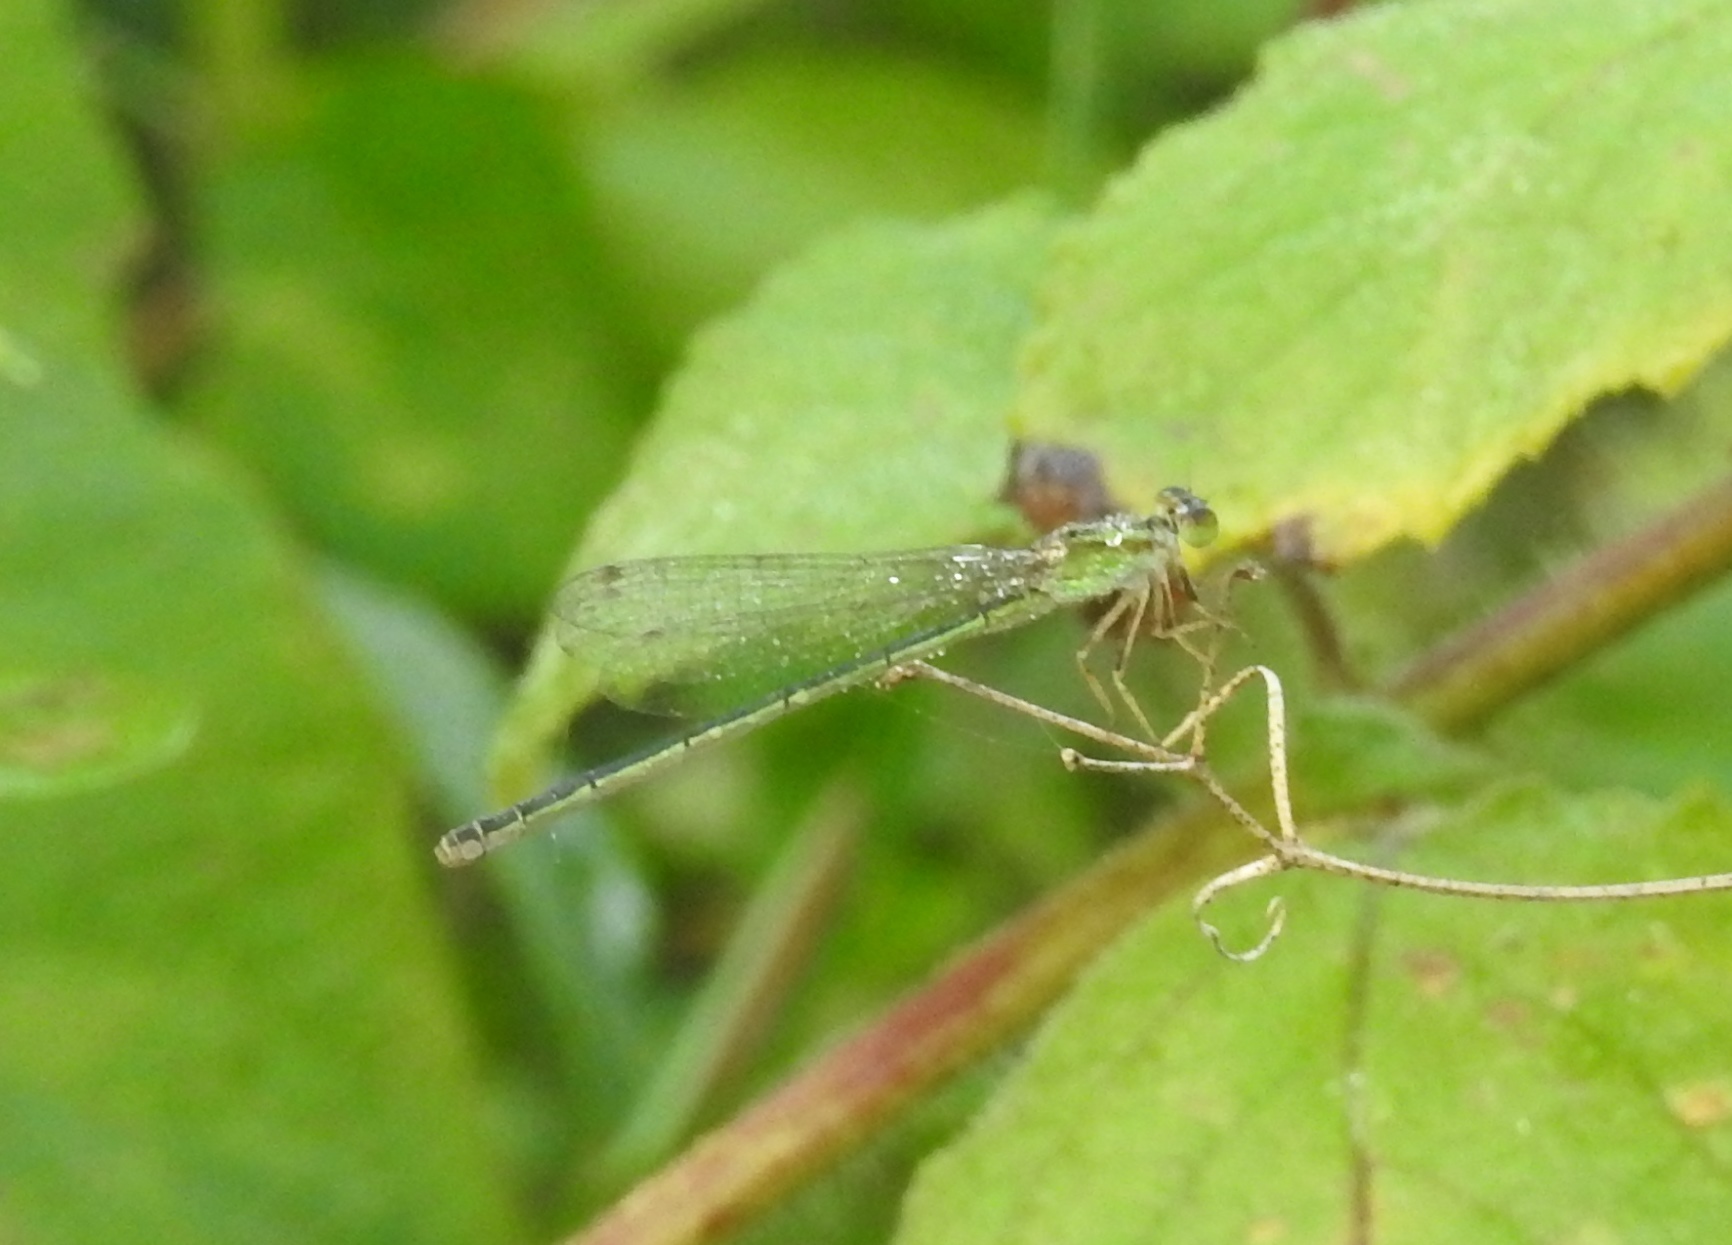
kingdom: Animalia
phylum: Arthropoda
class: Insecta
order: Odonata
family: Coenagrionidae
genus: Ischnura
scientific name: Ischnura senegalensis
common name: Tropical bluetail
